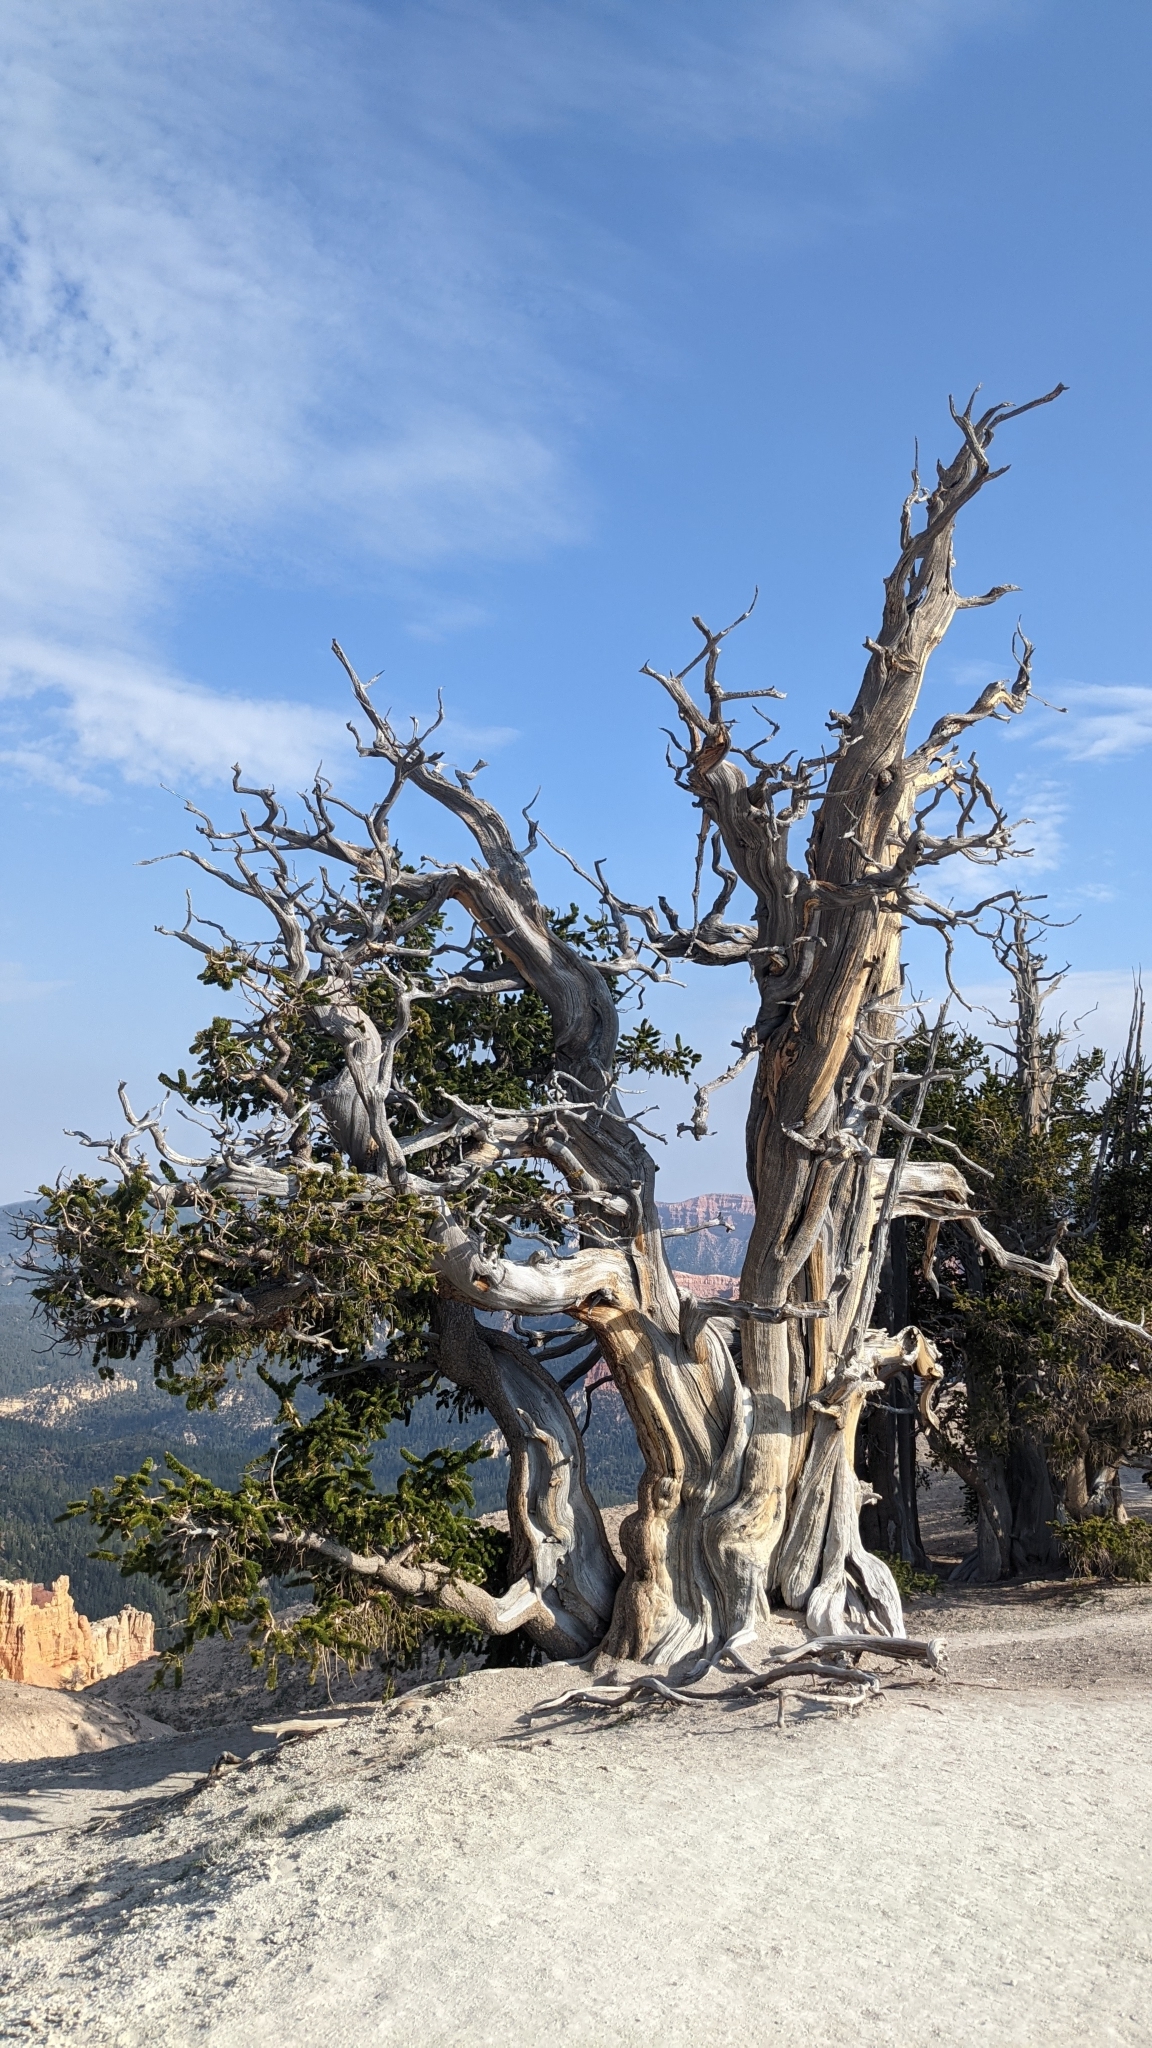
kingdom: Plantae
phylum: Tracheophyta
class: Pinopsida
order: Pinales
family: Pinaceae
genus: Pinus
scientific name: Pinus longaeva
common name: Intermountain bristlecone pine
